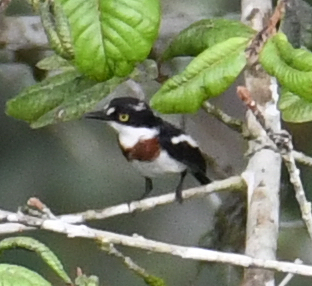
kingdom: Animalia
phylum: Chordata
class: Aves
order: Passeriformes
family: Platysteiridae
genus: Batis
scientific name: Batis poensis
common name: Fernando po batis
